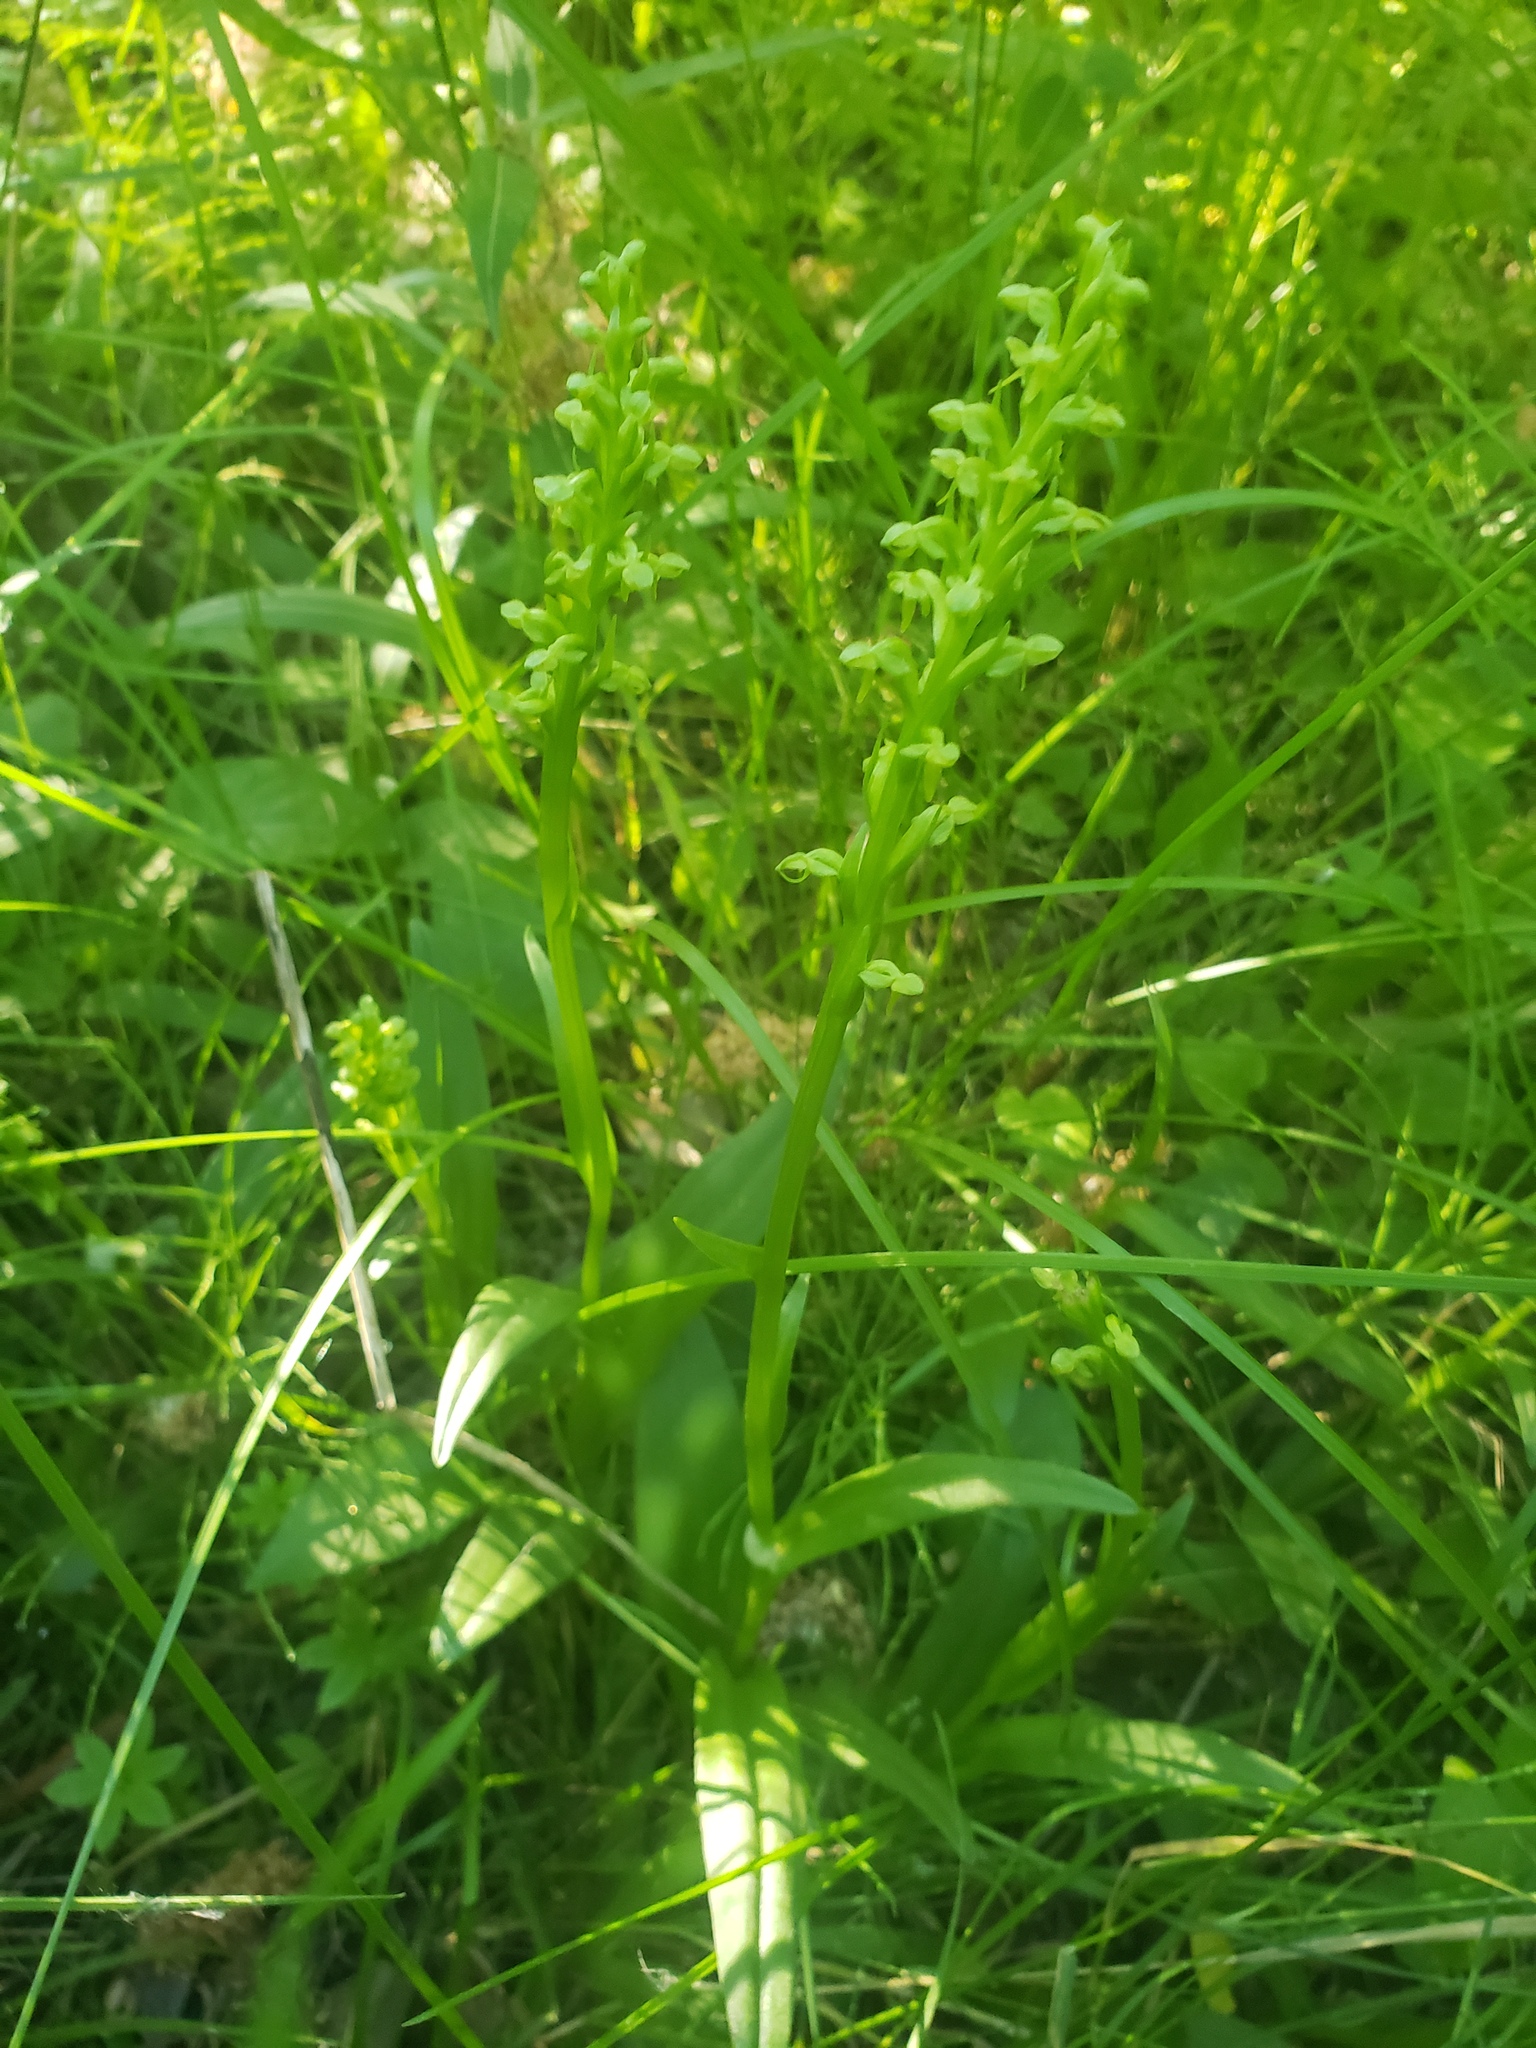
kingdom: Plantae
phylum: Tracheophyta
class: Liliopsida
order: Asparagales
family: Orchidaceae
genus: Platanthera
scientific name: Platanthera aquilonis
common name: Northern green orchid
